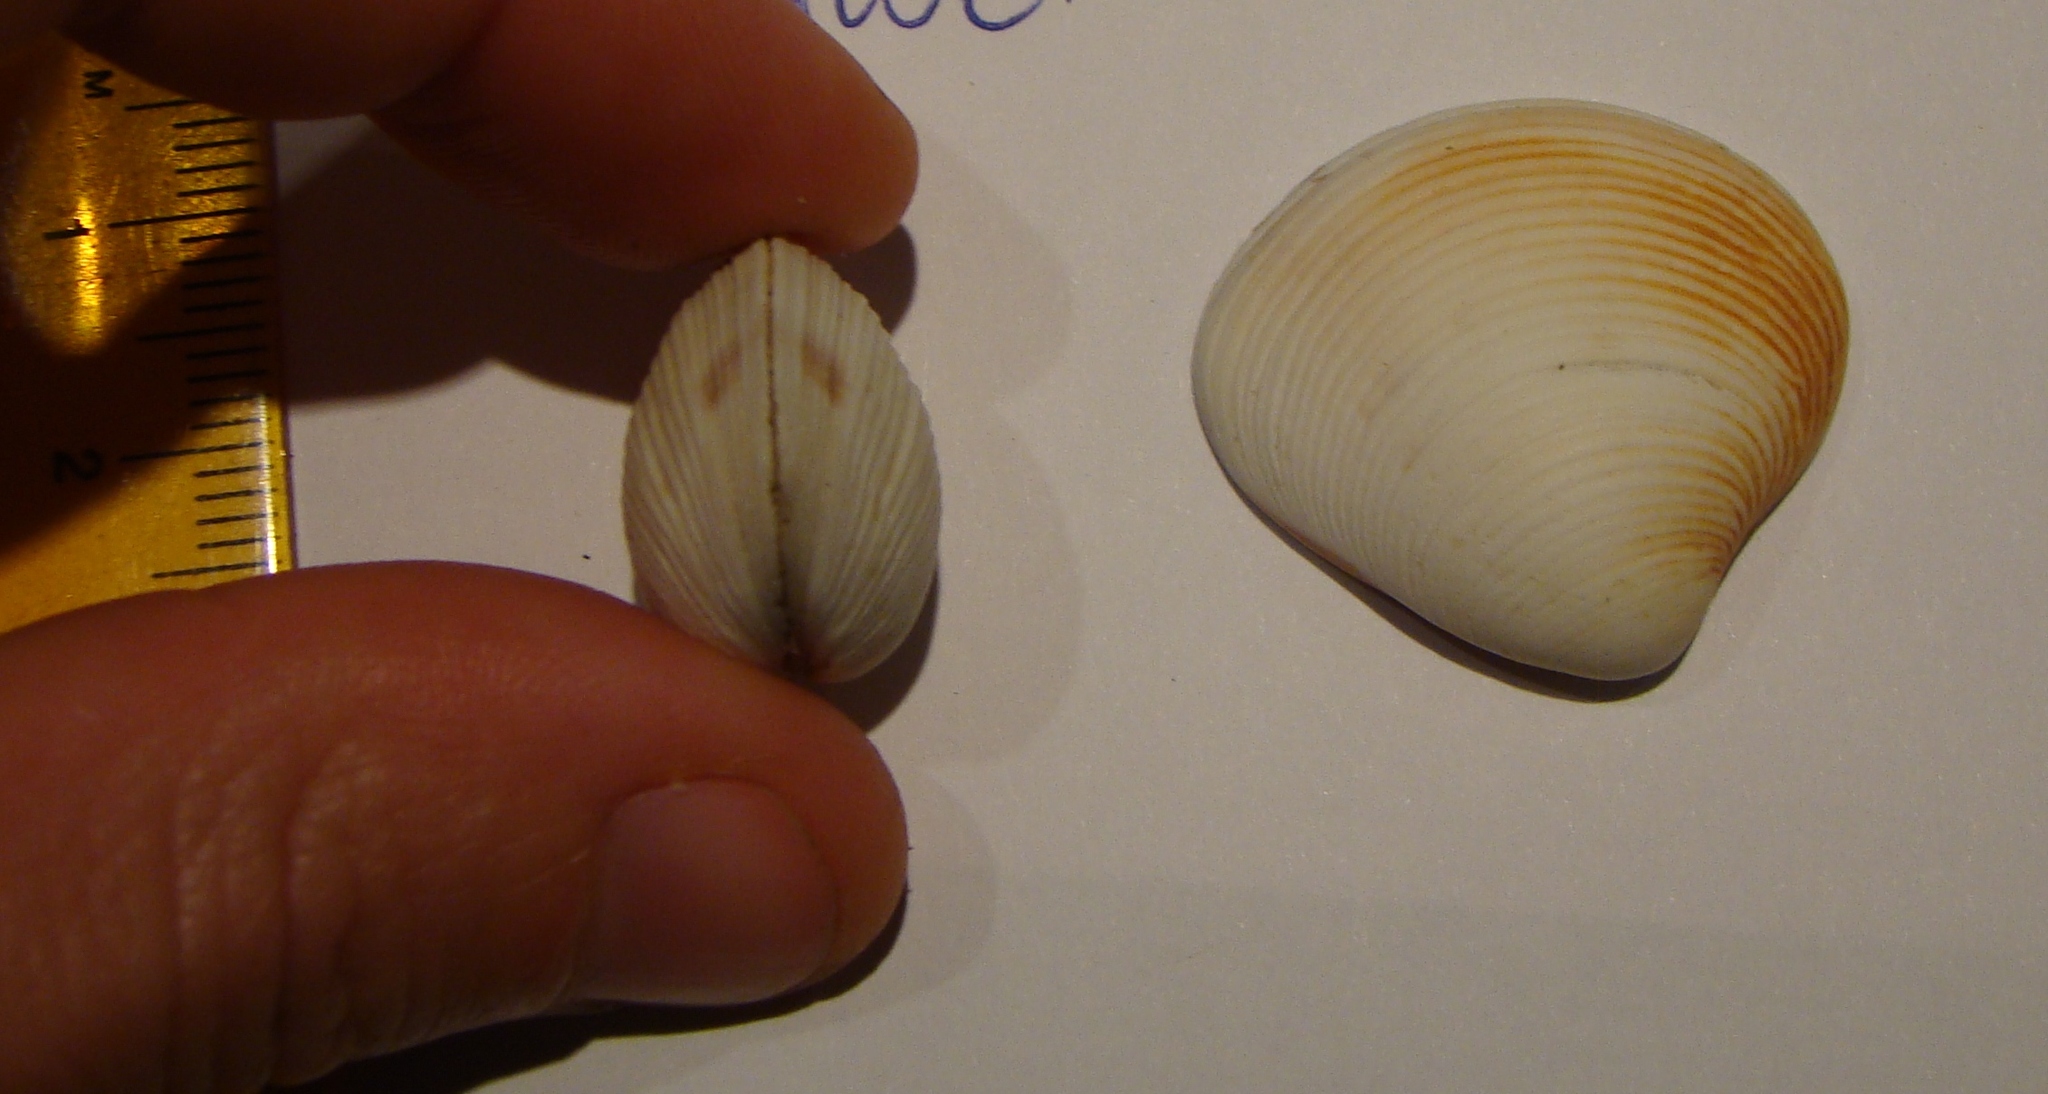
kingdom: Animalia
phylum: Mollusca
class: Bivalvia
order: Venerida
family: Veneridae
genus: Tawera
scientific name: Tawera spissa
